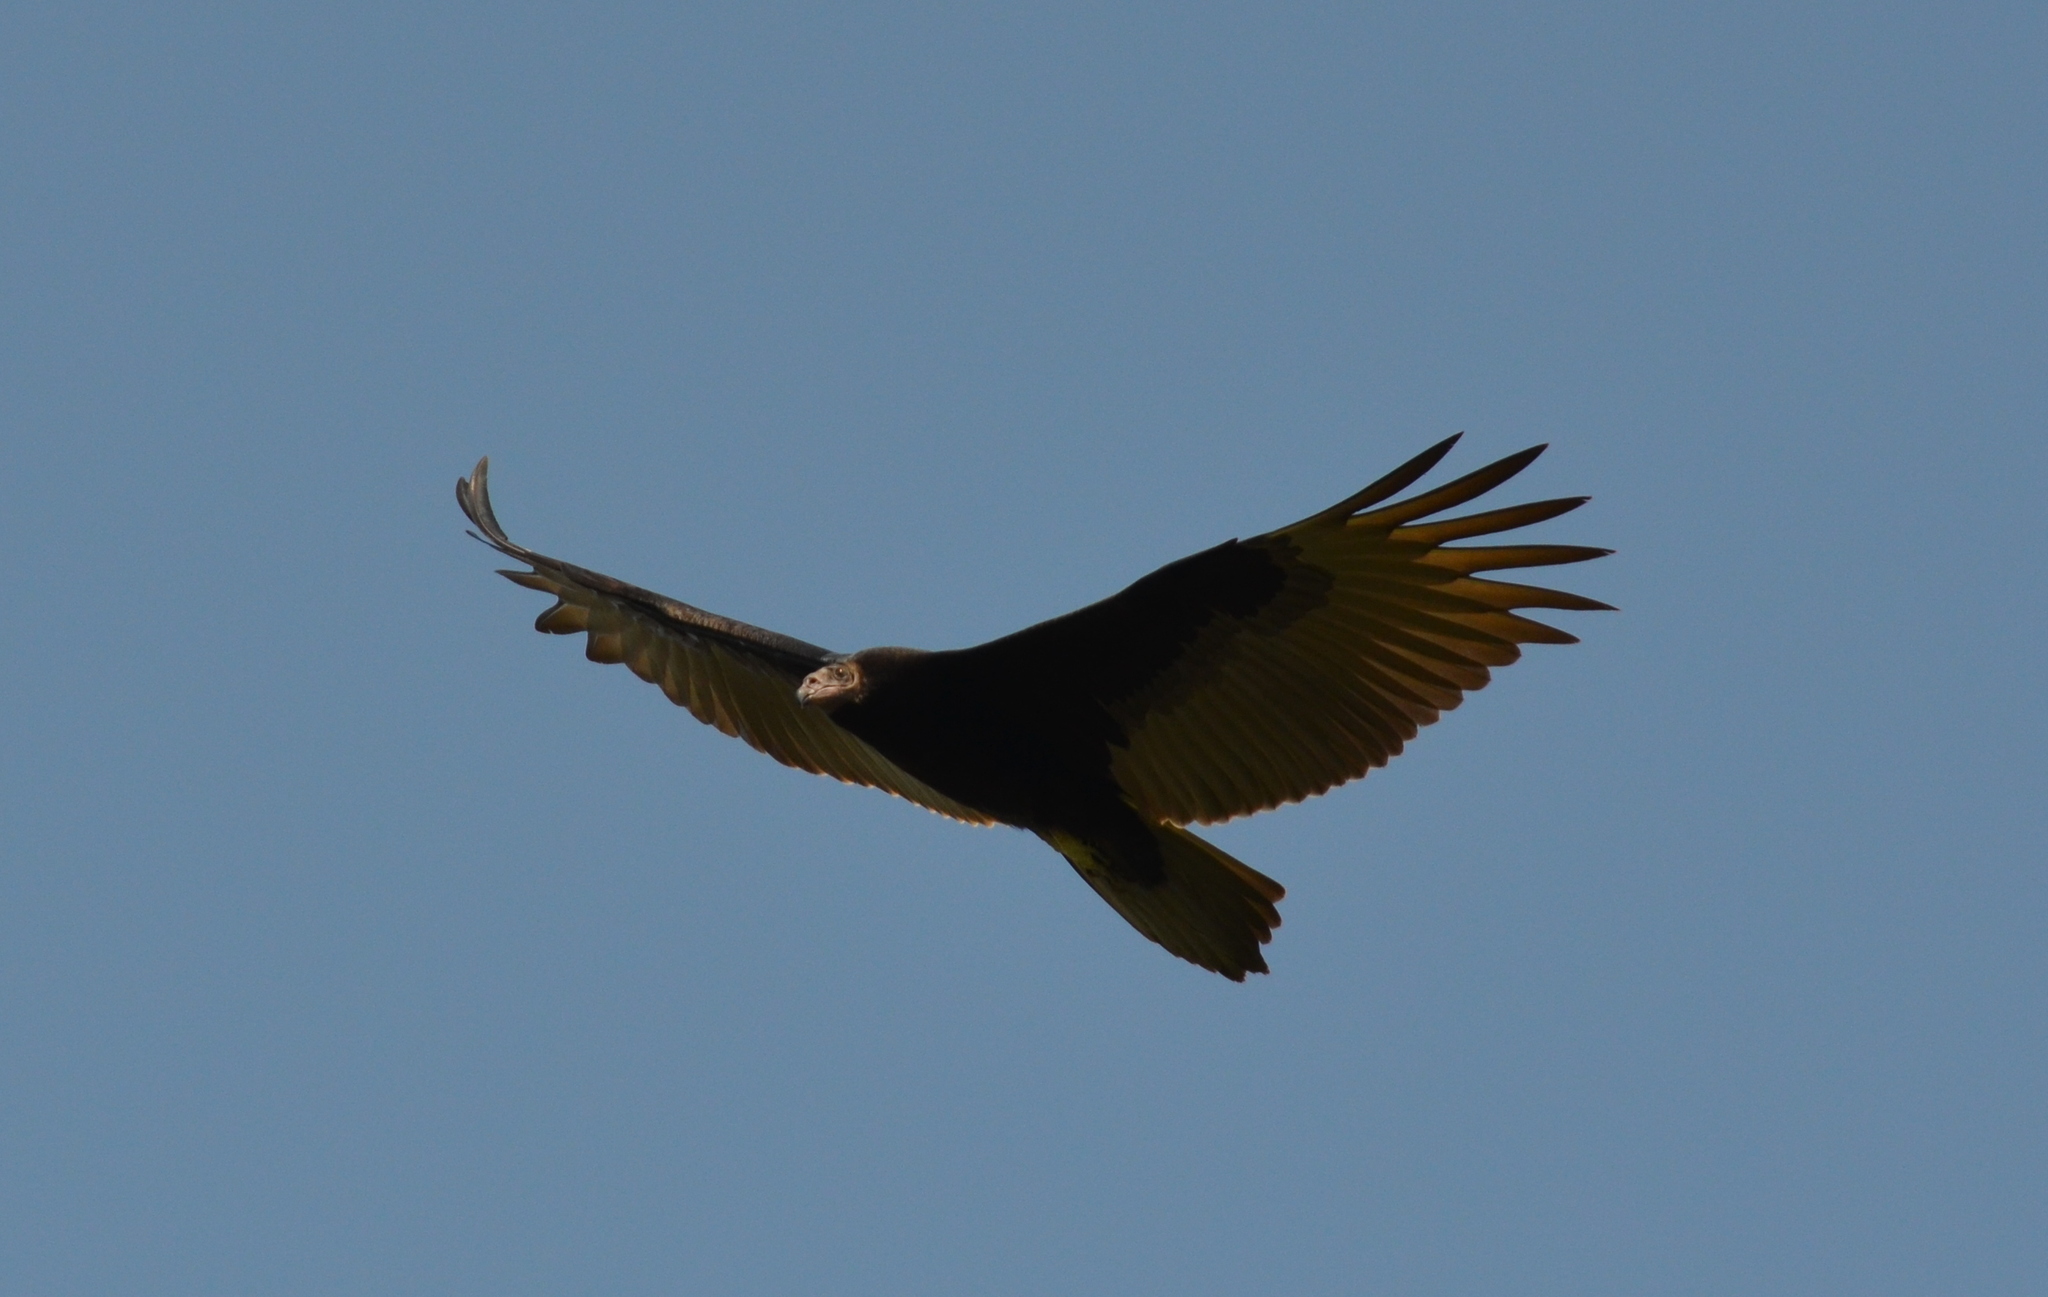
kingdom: Animalia
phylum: Chordata
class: Aves
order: Accipitriformes
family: Cathartidae
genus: Cathartes
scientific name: Cathartes aura
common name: Turkey vulture
